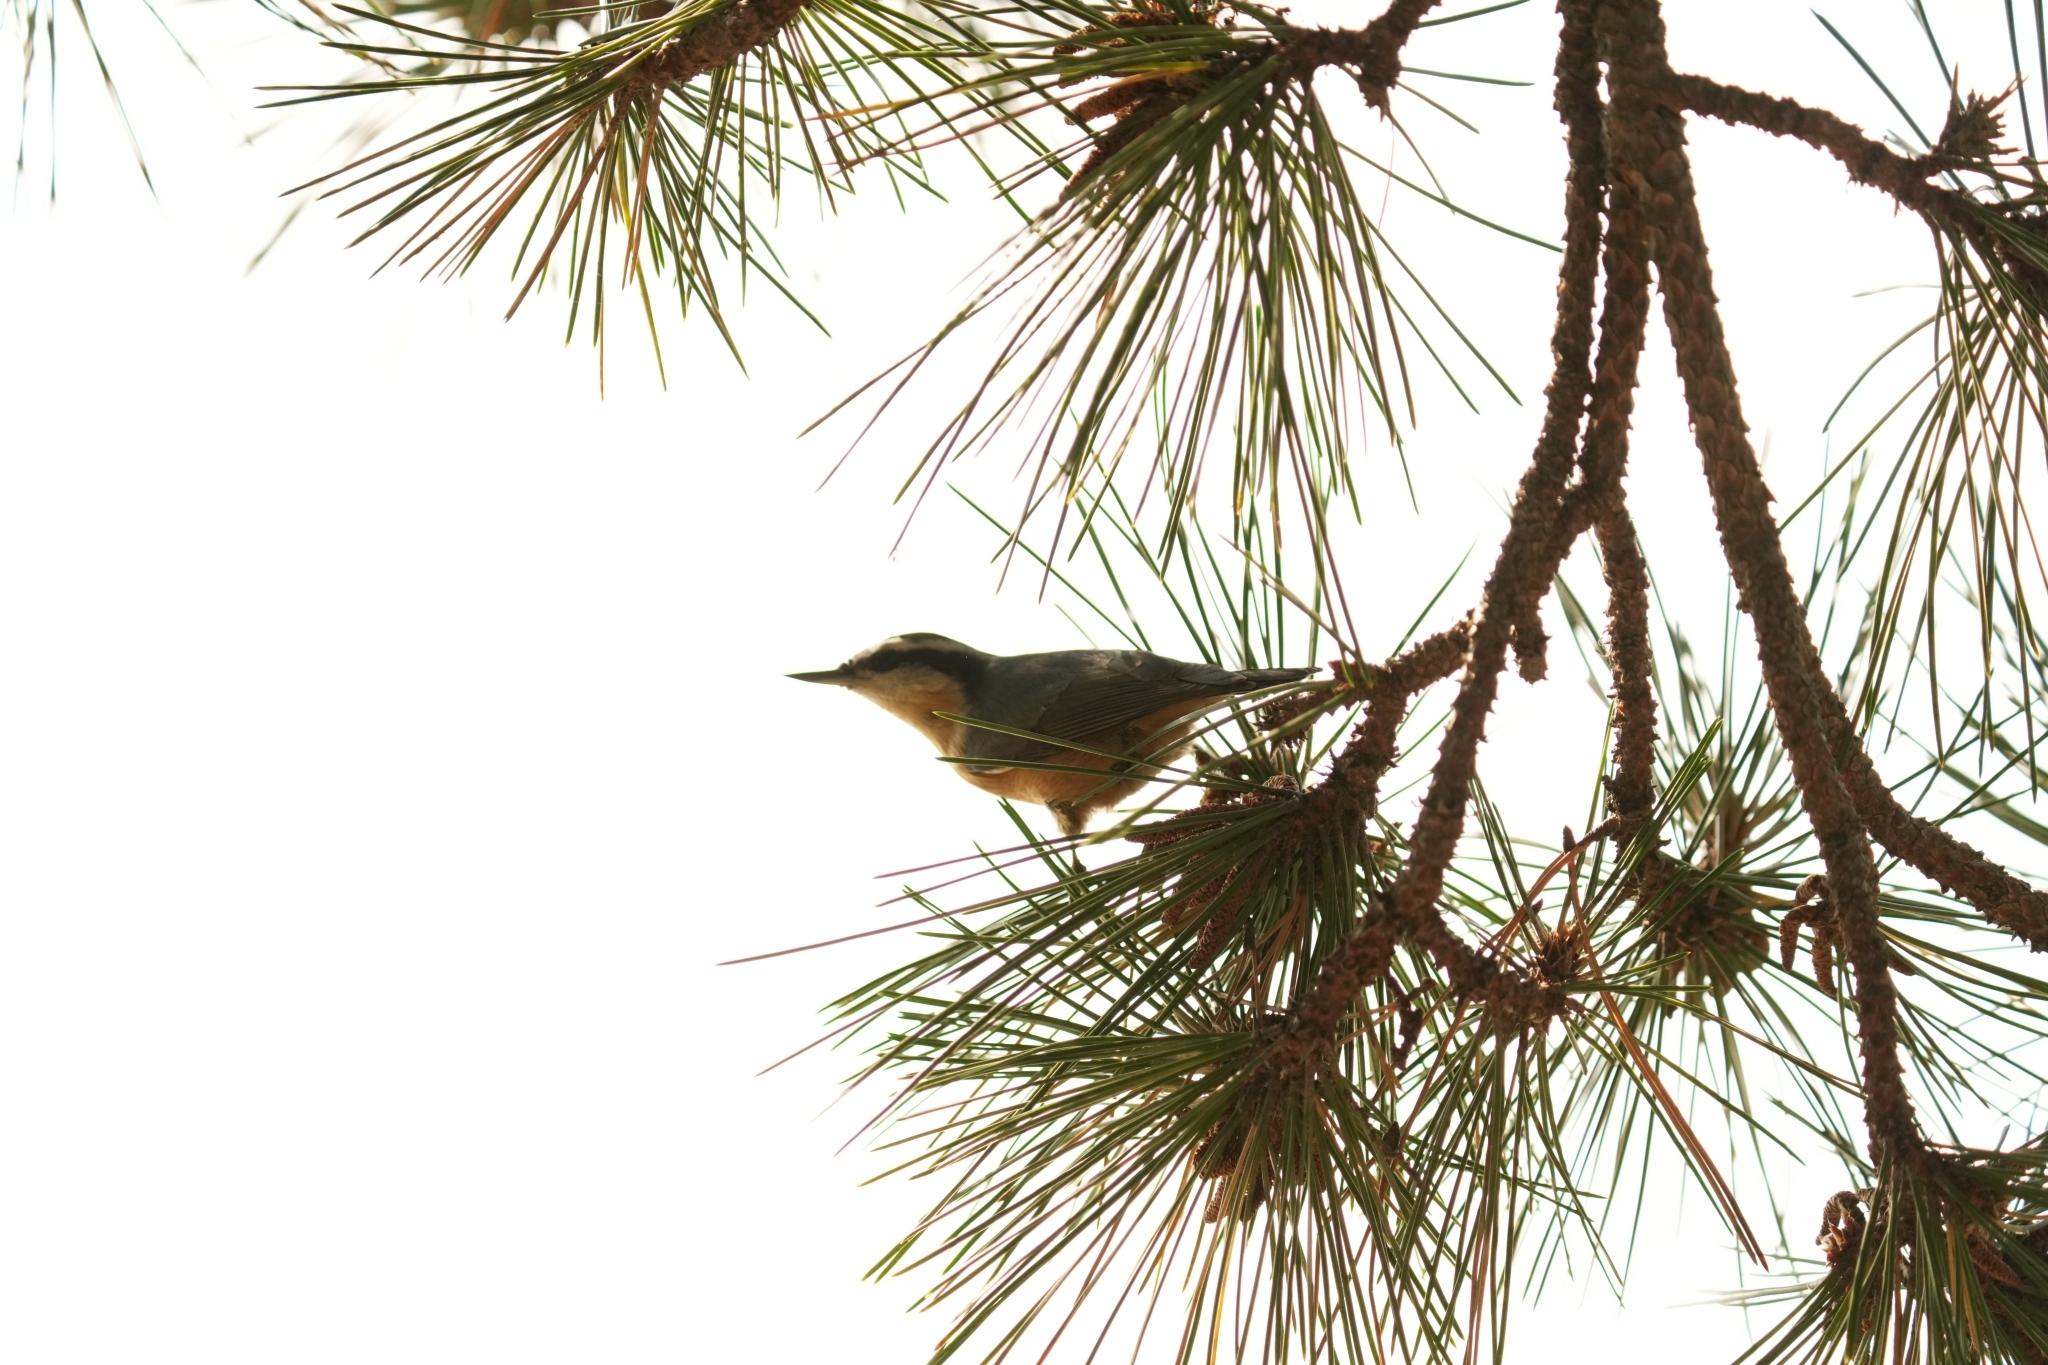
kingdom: Animalia
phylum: Chordata
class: Aves
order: Passeriformes
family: Sittidae
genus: Sitta
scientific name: Sitta canadensis
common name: Red-breasted nuthatch
